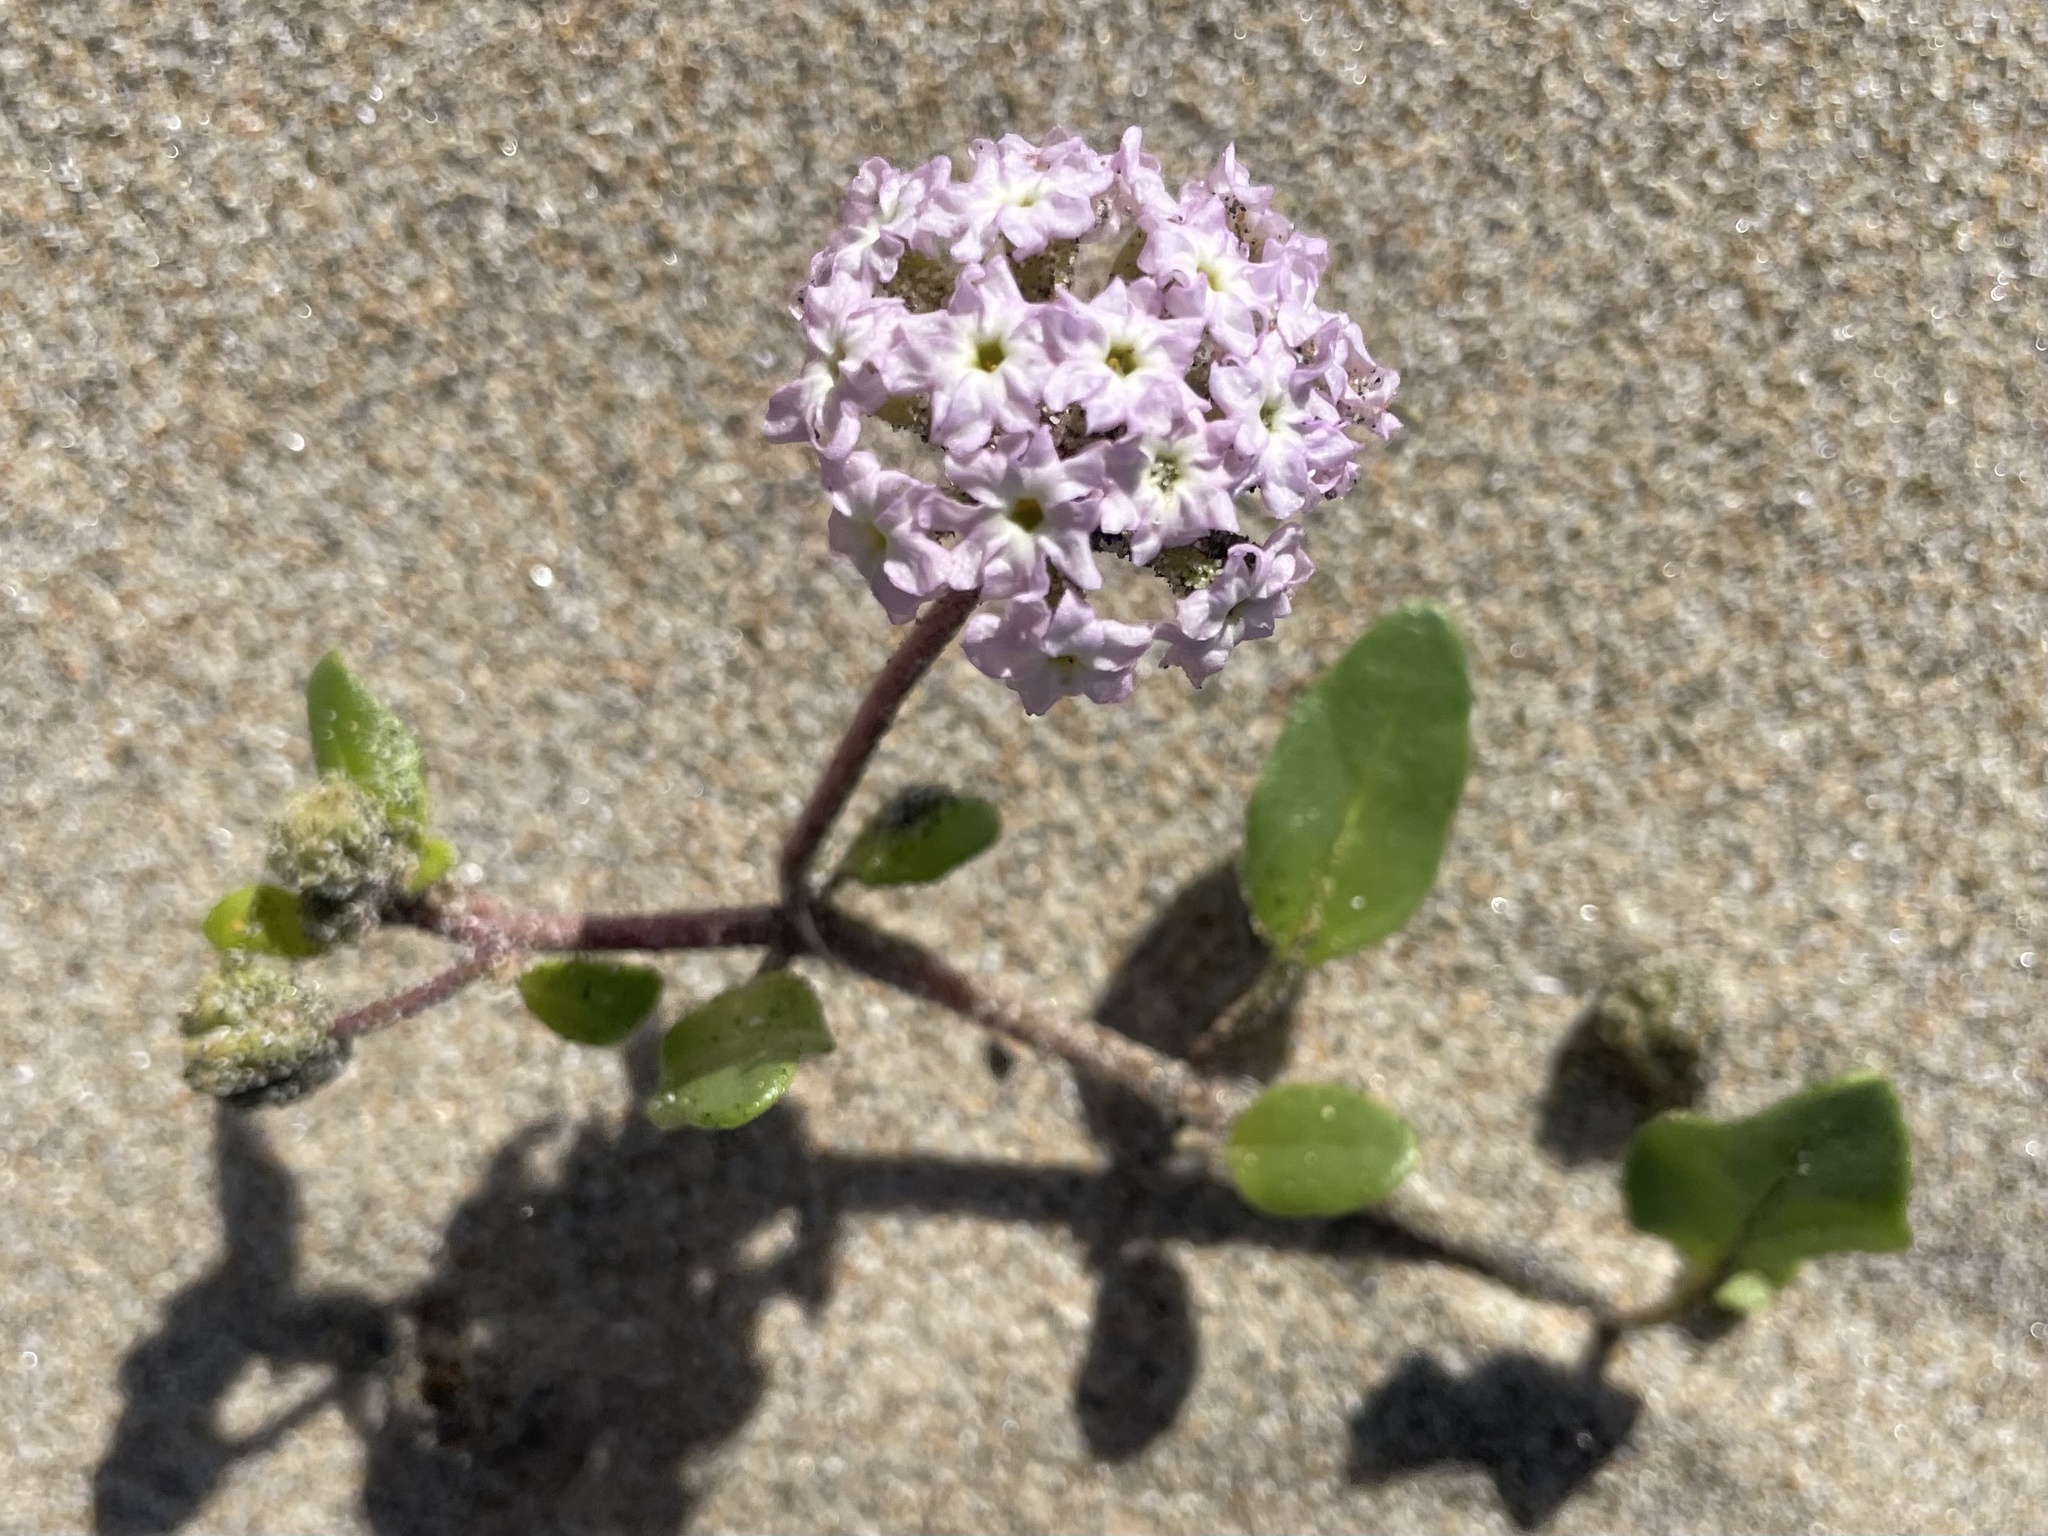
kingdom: Plantae
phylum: Tracheophyta
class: Magnoliopsida
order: Caryophyllales
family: Nyctaginaceae
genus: Abronia
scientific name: Abronia umbellata
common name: Sand-verbena
